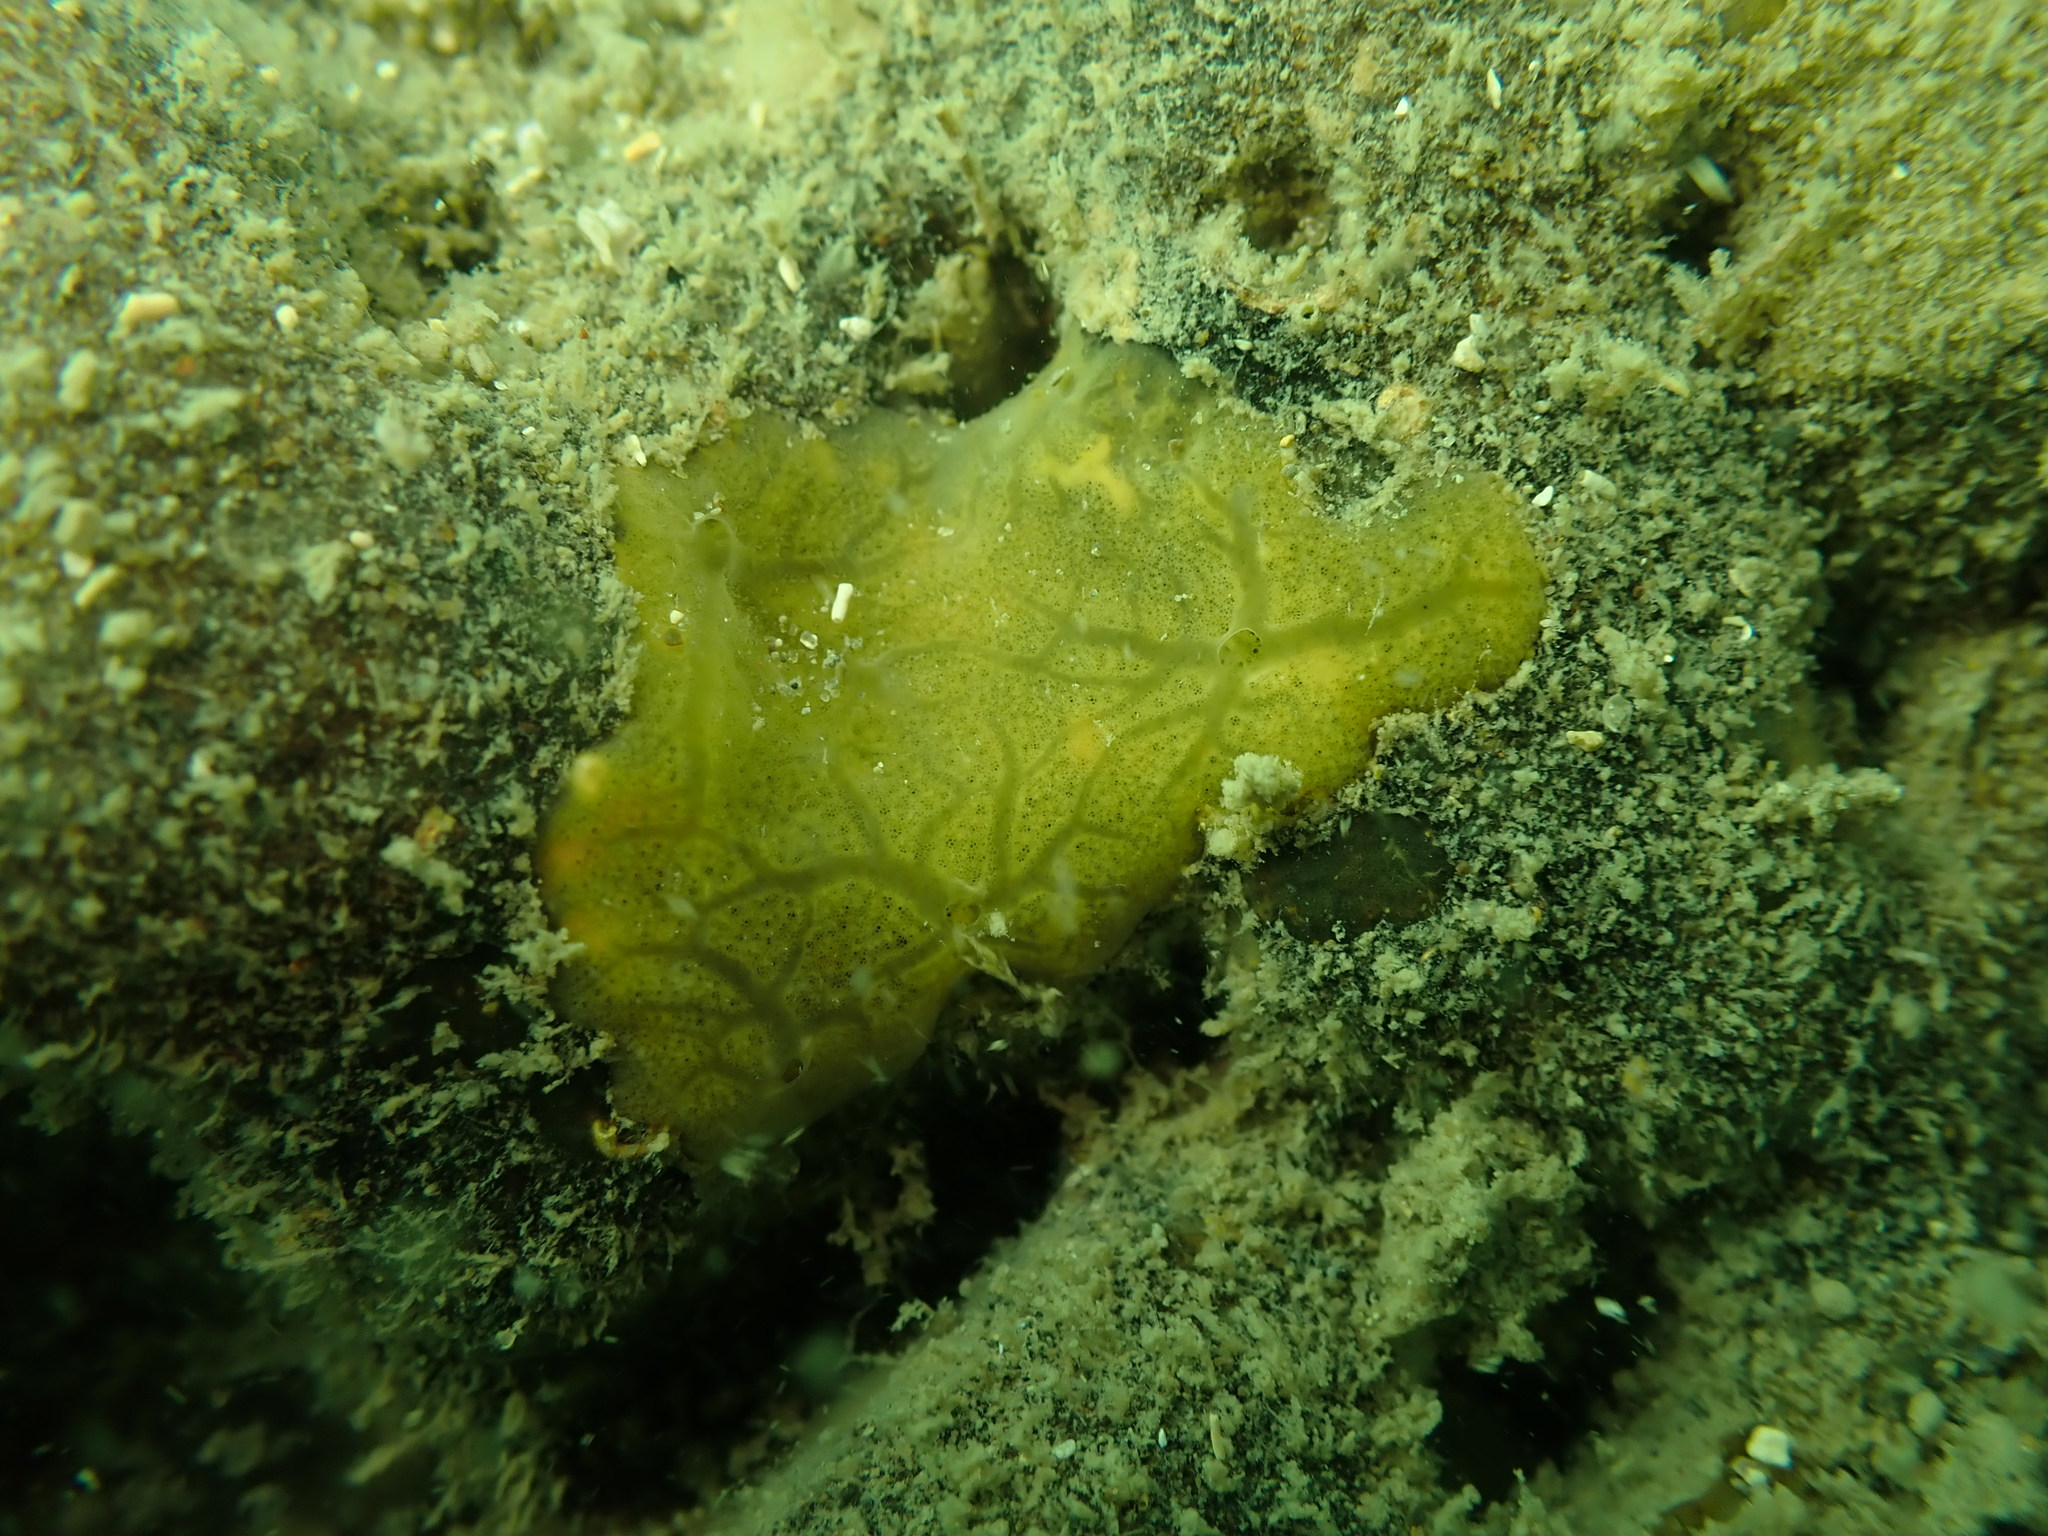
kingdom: Animalia
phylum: Porifera
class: Demospongiae
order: Tethyida
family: Timeidae
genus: Timea
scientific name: Timea aurantiaca
